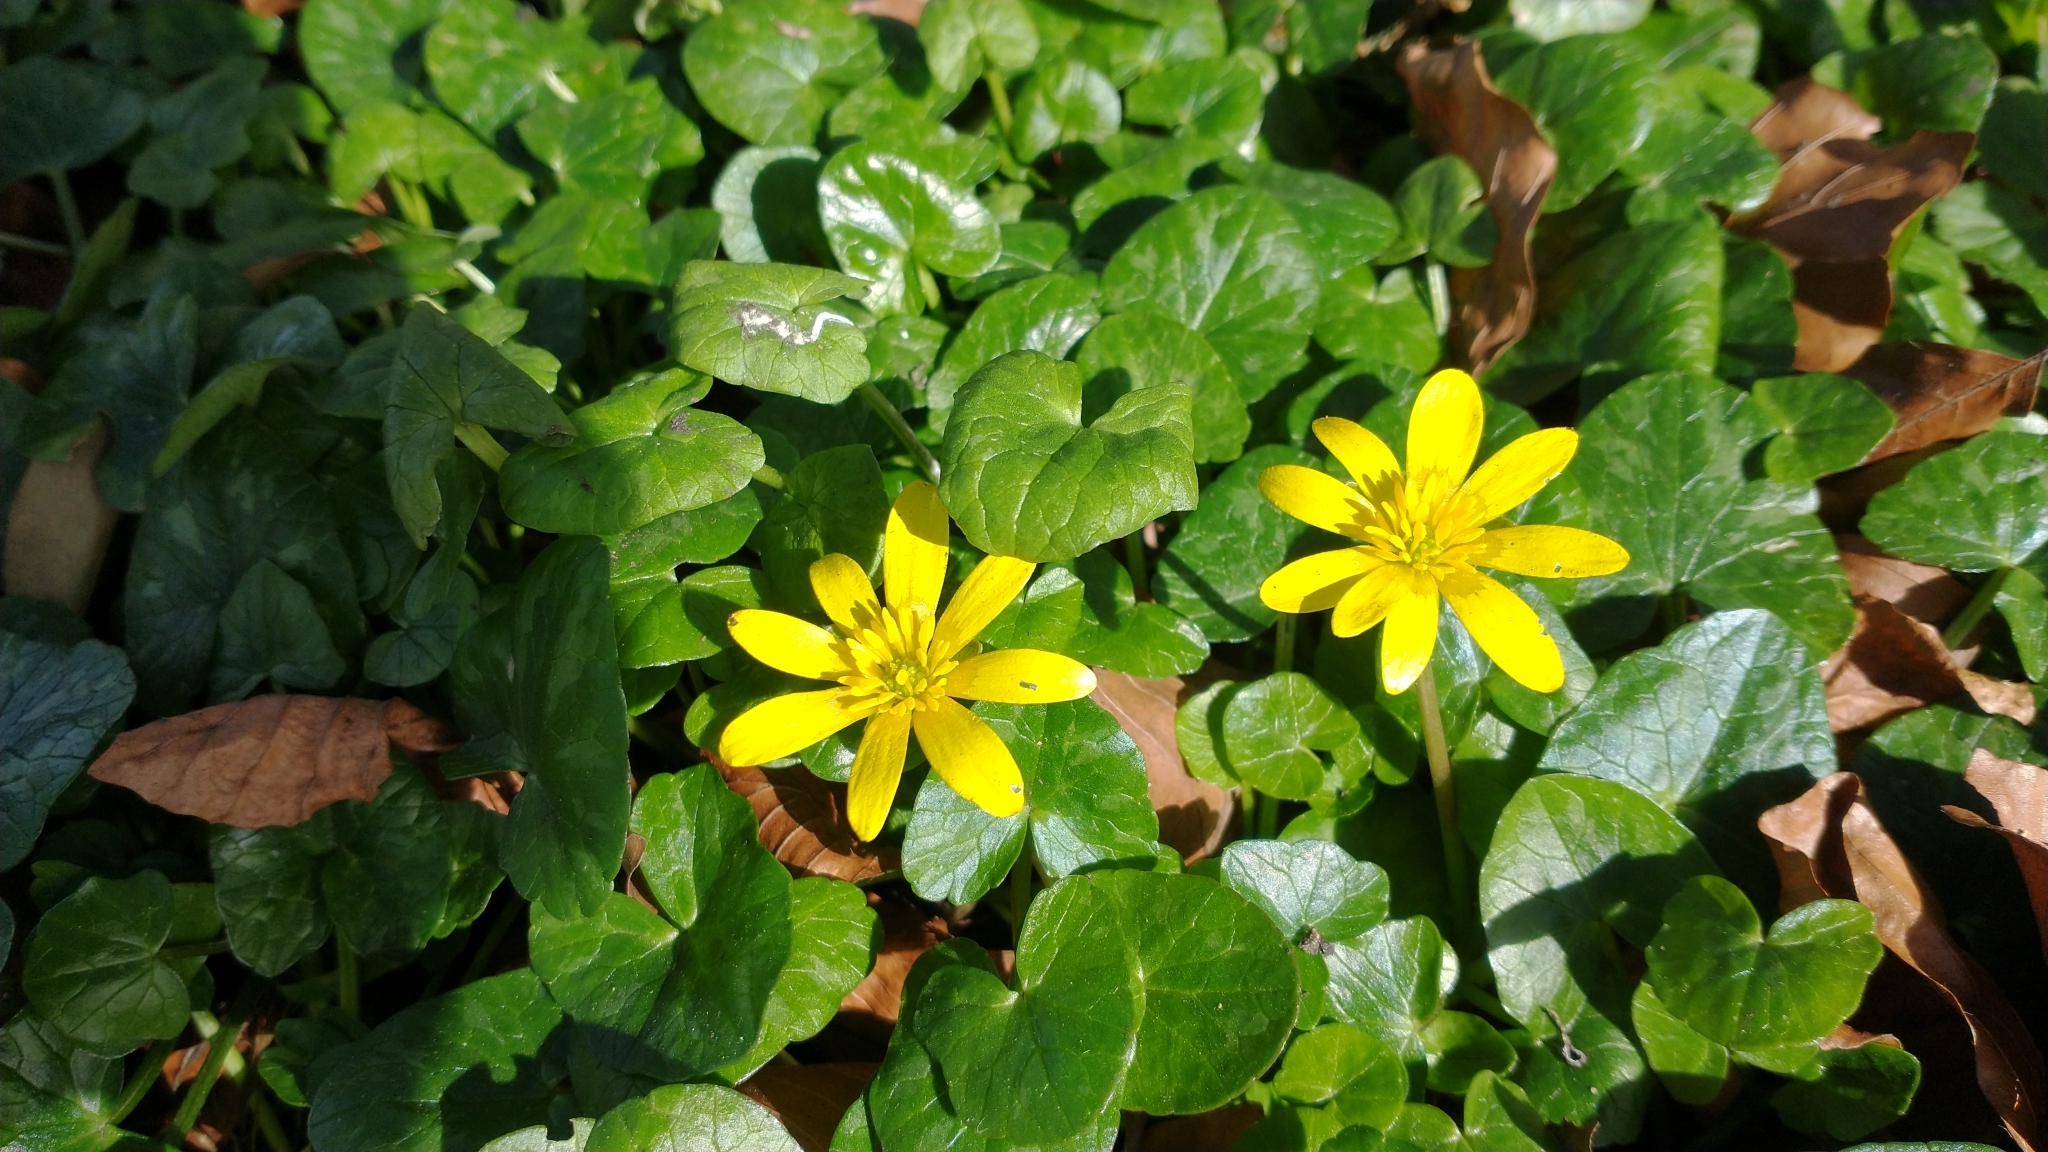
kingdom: Plantae
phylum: Tracheophyta
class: Magnoliopsida
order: Ranunculales
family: Ranunculaceae
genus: Ficaria
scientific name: Ficaria verna
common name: Lesser celandine
